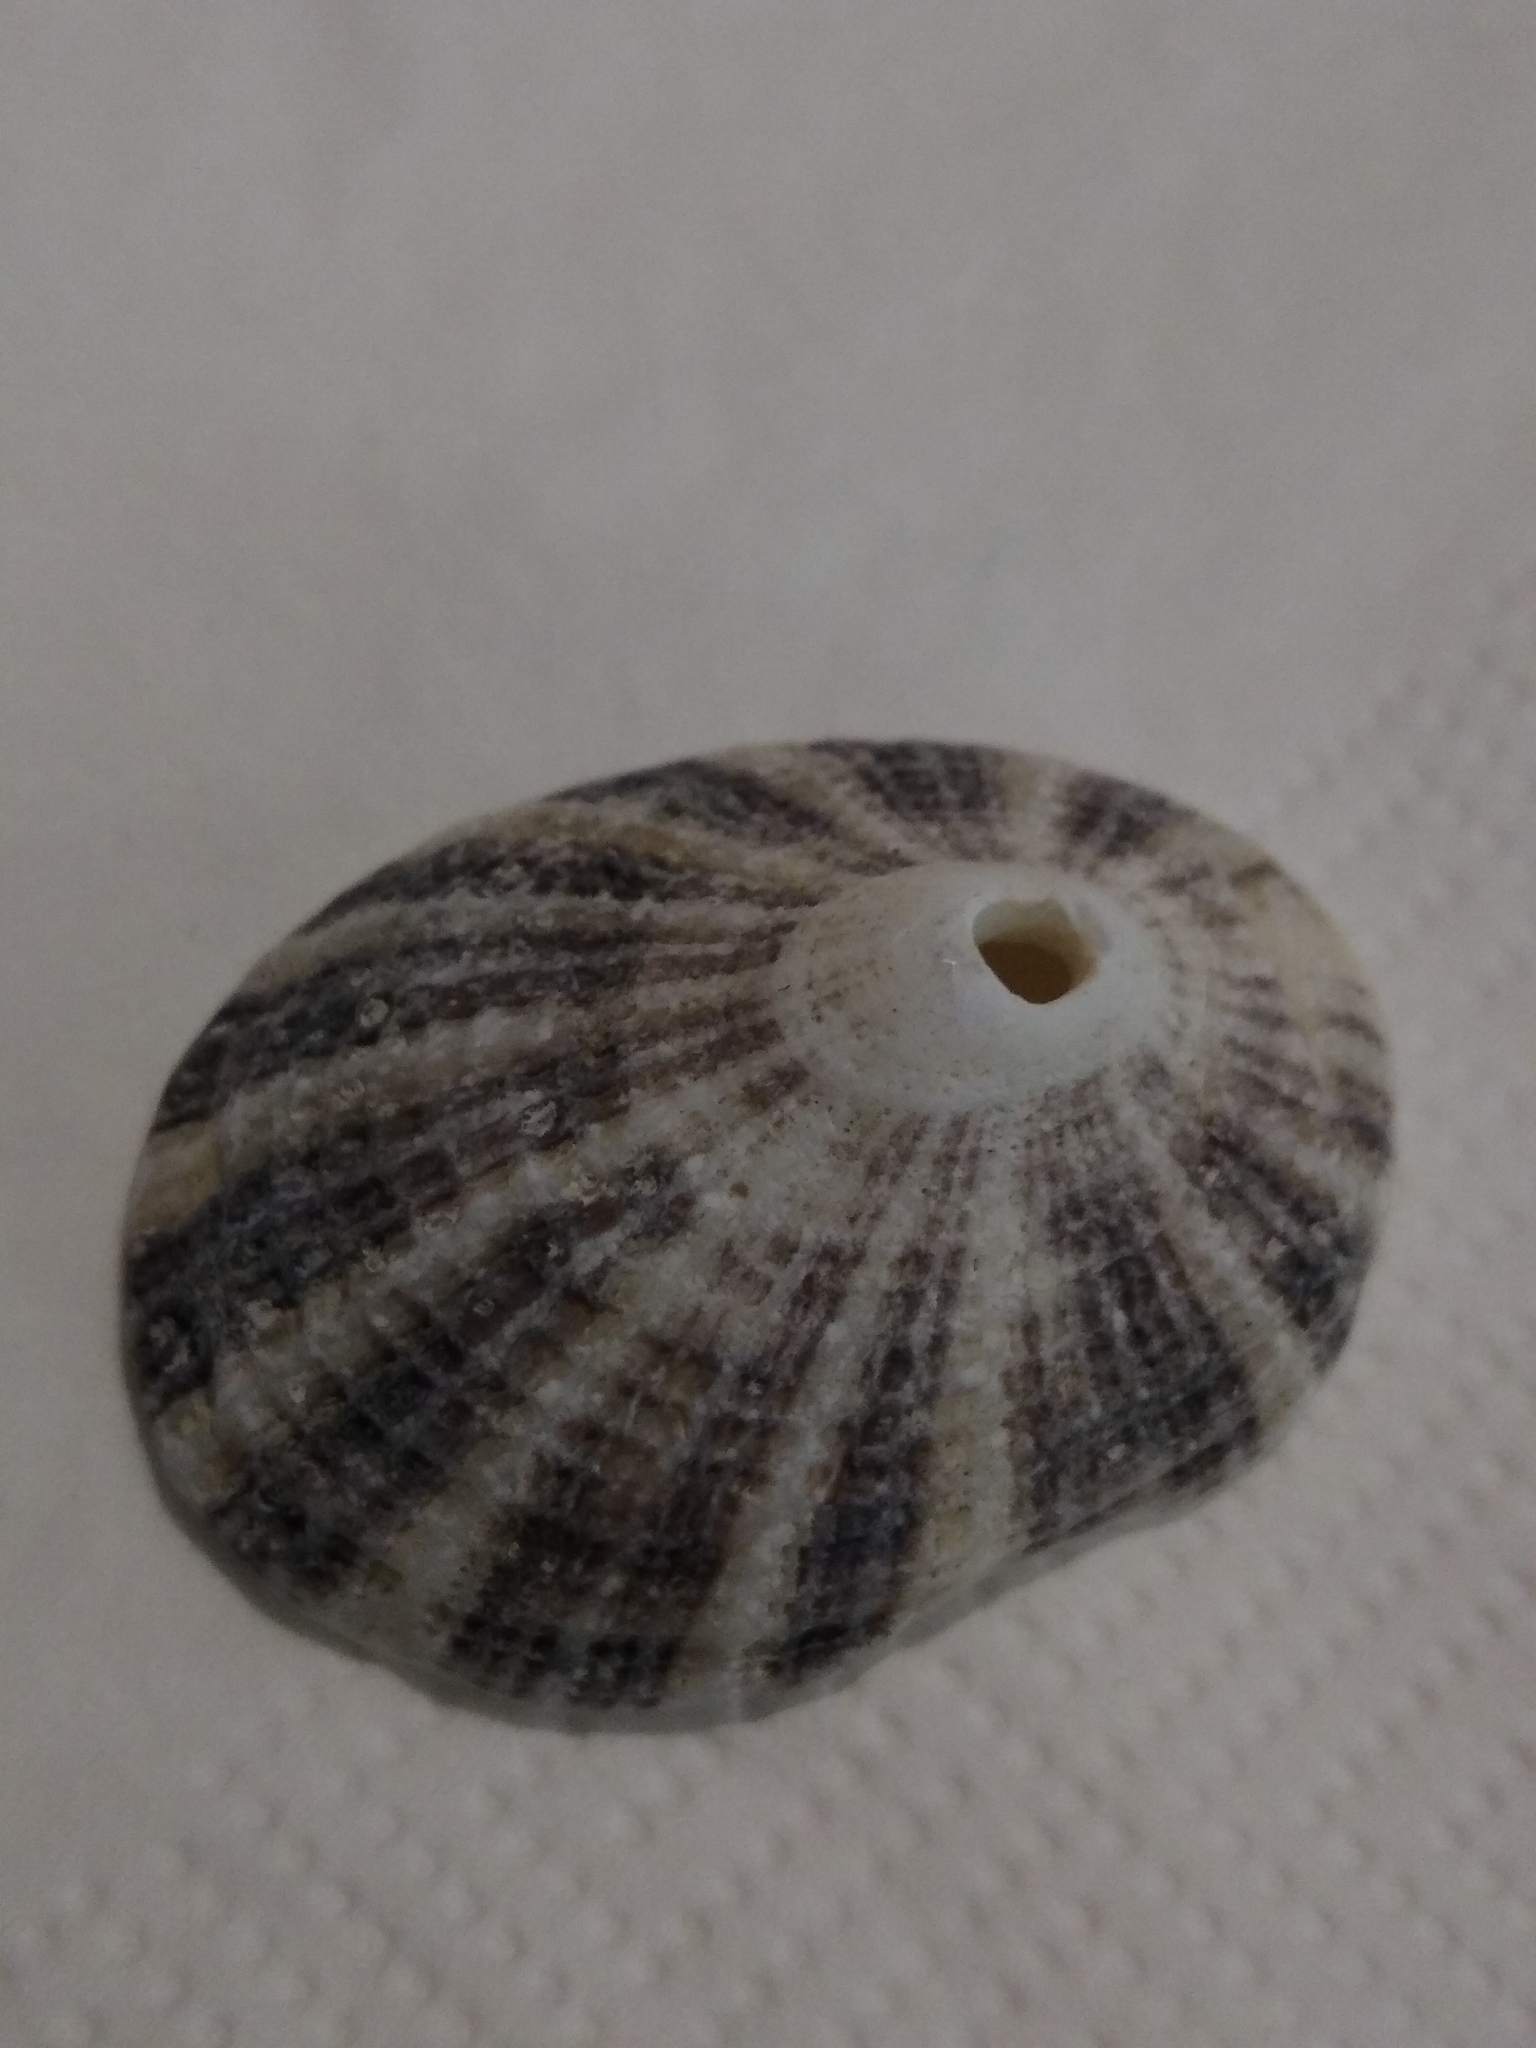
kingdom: Animalia
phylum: Mollusca
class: Gastropoda
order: Lepetellida
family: Fissurellidae
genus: Diodora
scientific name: Diodora aspera
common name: Rough keyhole limpet
